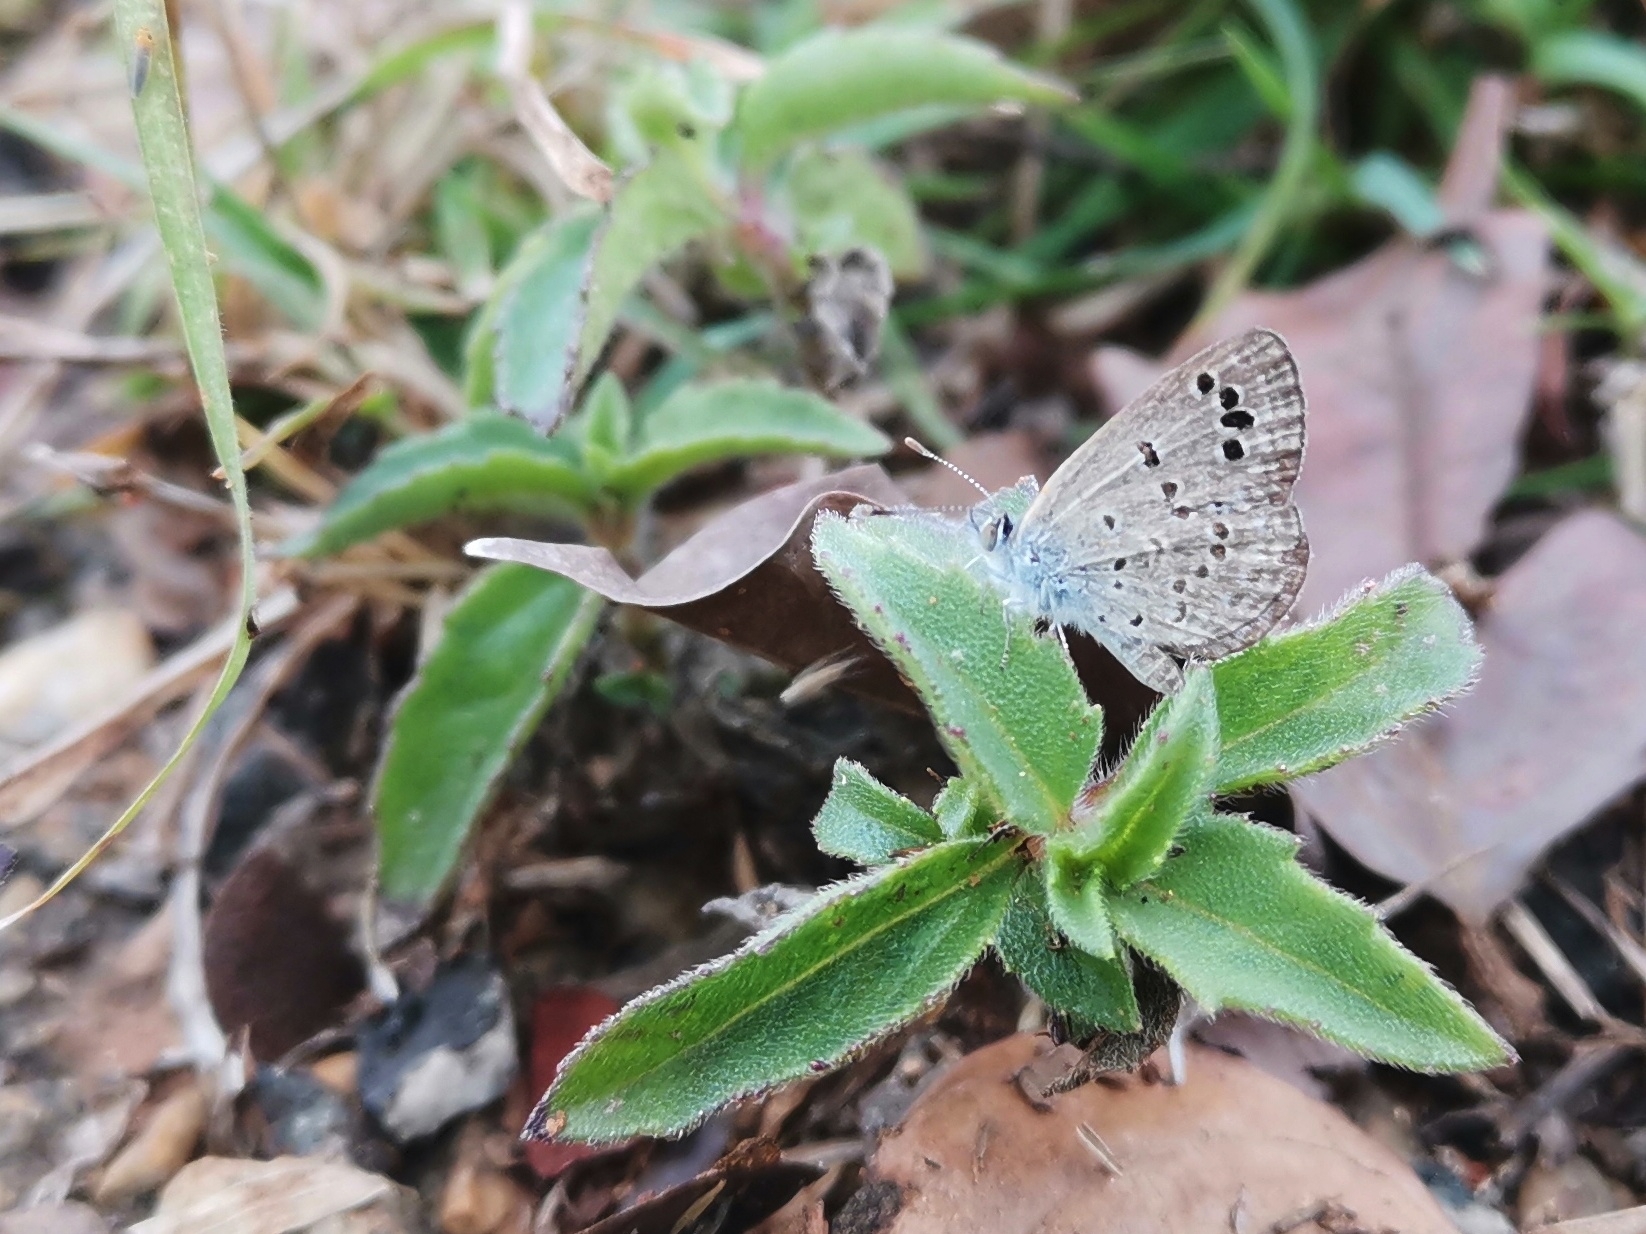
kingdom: Animalia
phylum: Arthropoda
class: Insecta
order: Lepidoptera
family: Lycaenidae
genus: Zizina
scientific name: Zizina otis
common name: Lesser grass blue
